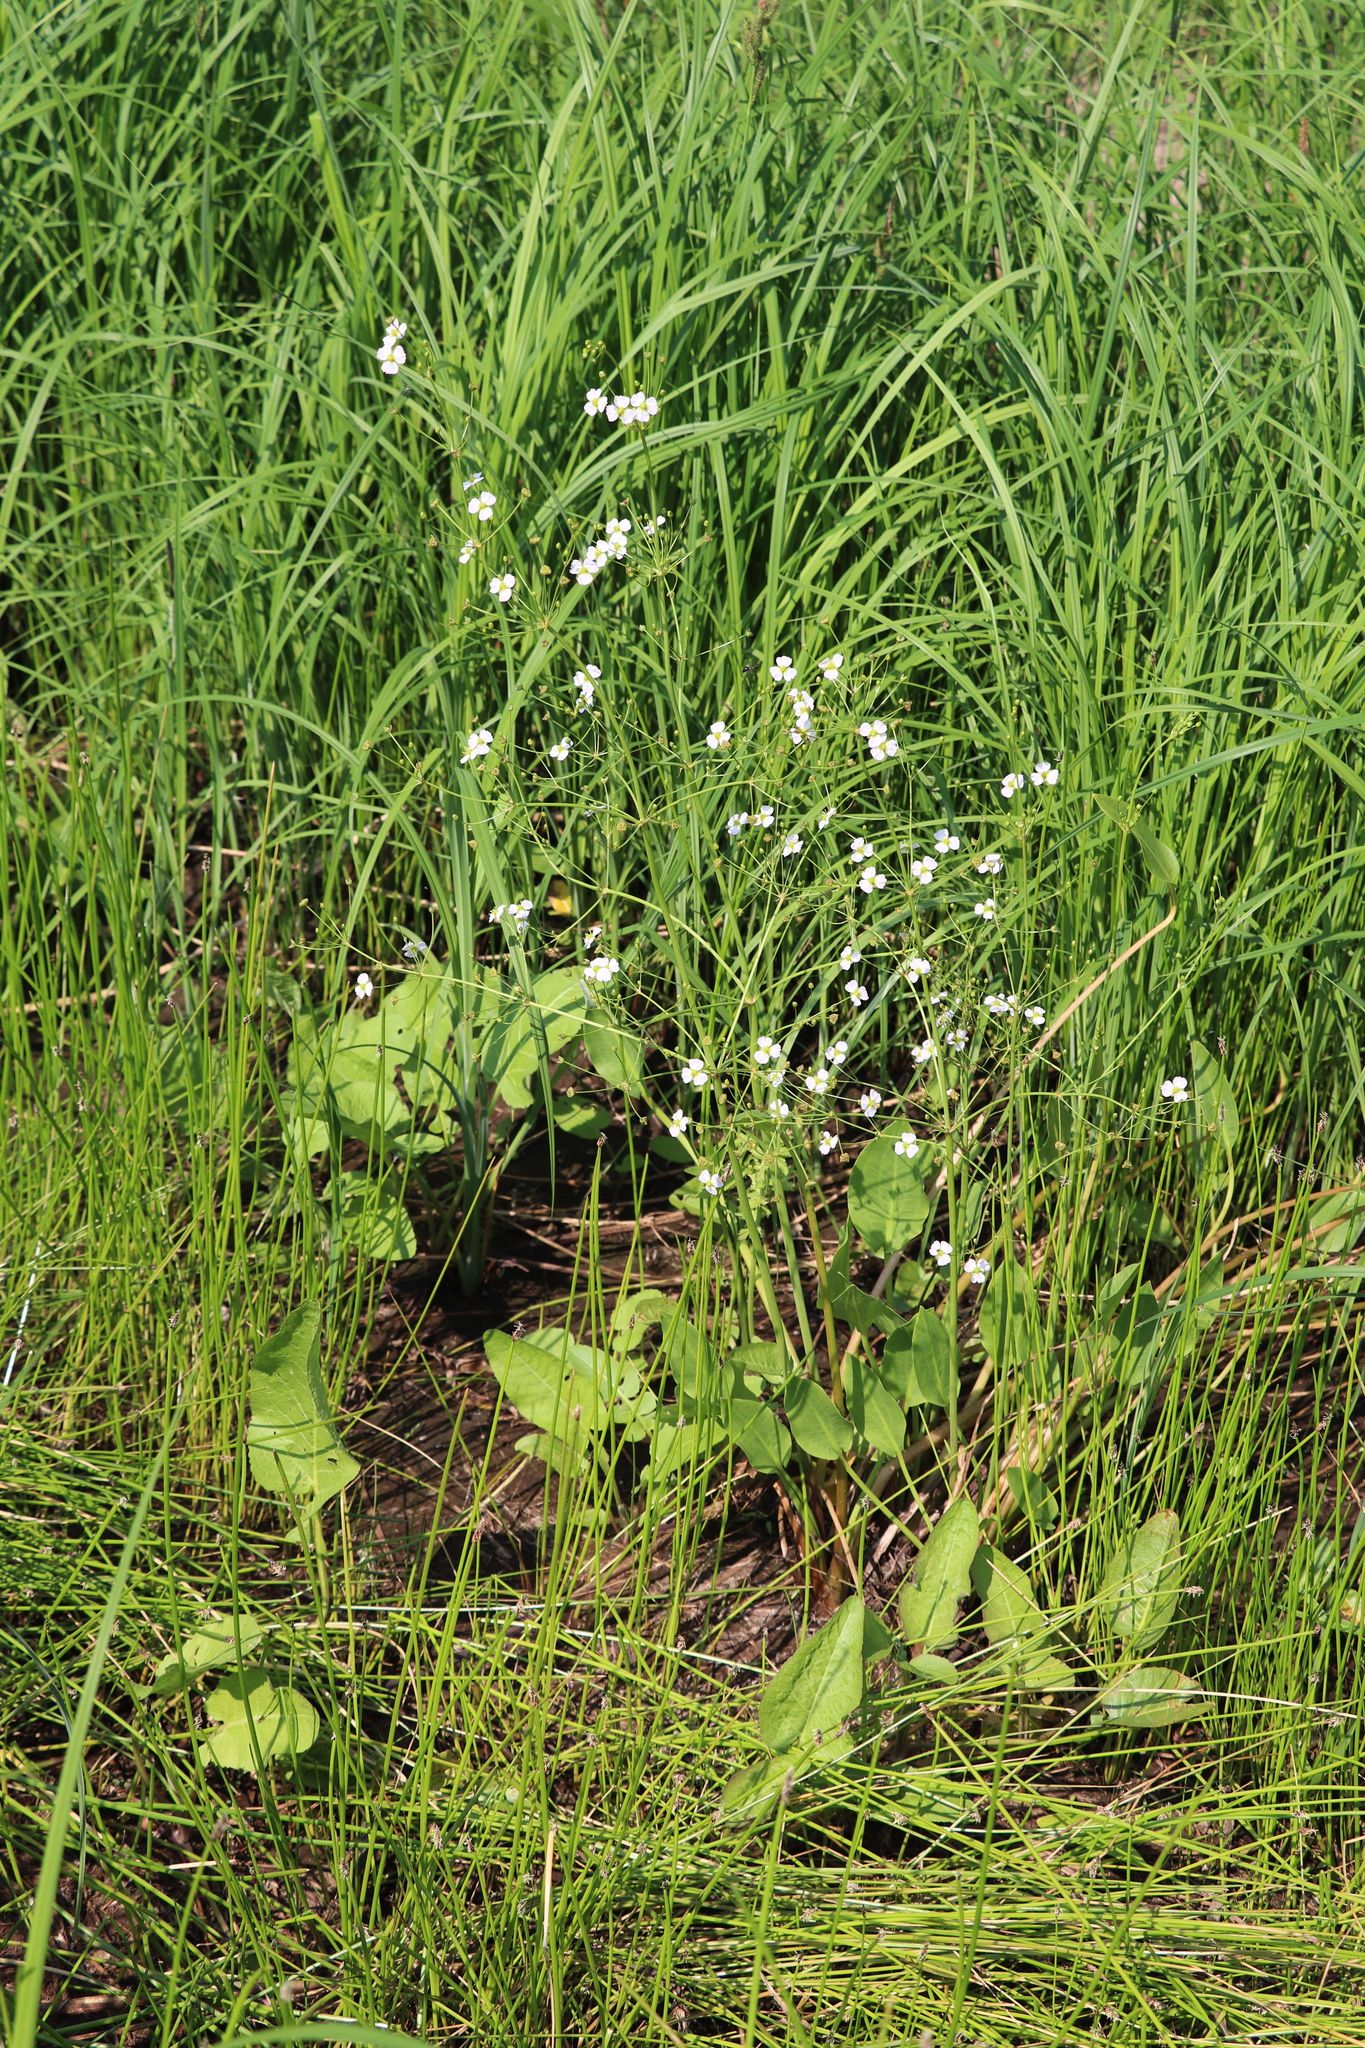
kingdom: Plantae
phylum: Tracheophyta
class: Liliopsida
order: Alismatales
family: Alismataceae
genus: Alisma
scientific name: Alisma plantago-aquatica
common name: Water-plantain
